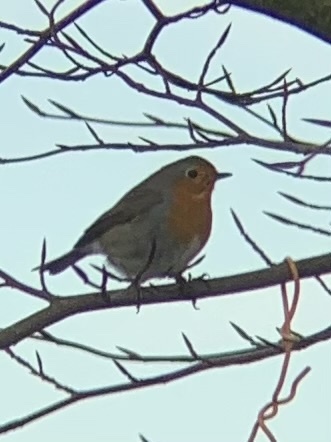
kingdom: Animalia
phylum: Chordata
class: Aves
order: Passeriformes
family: Muscicapidae
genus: Erithacus
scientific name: Erithacus rubecula
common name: European robin
